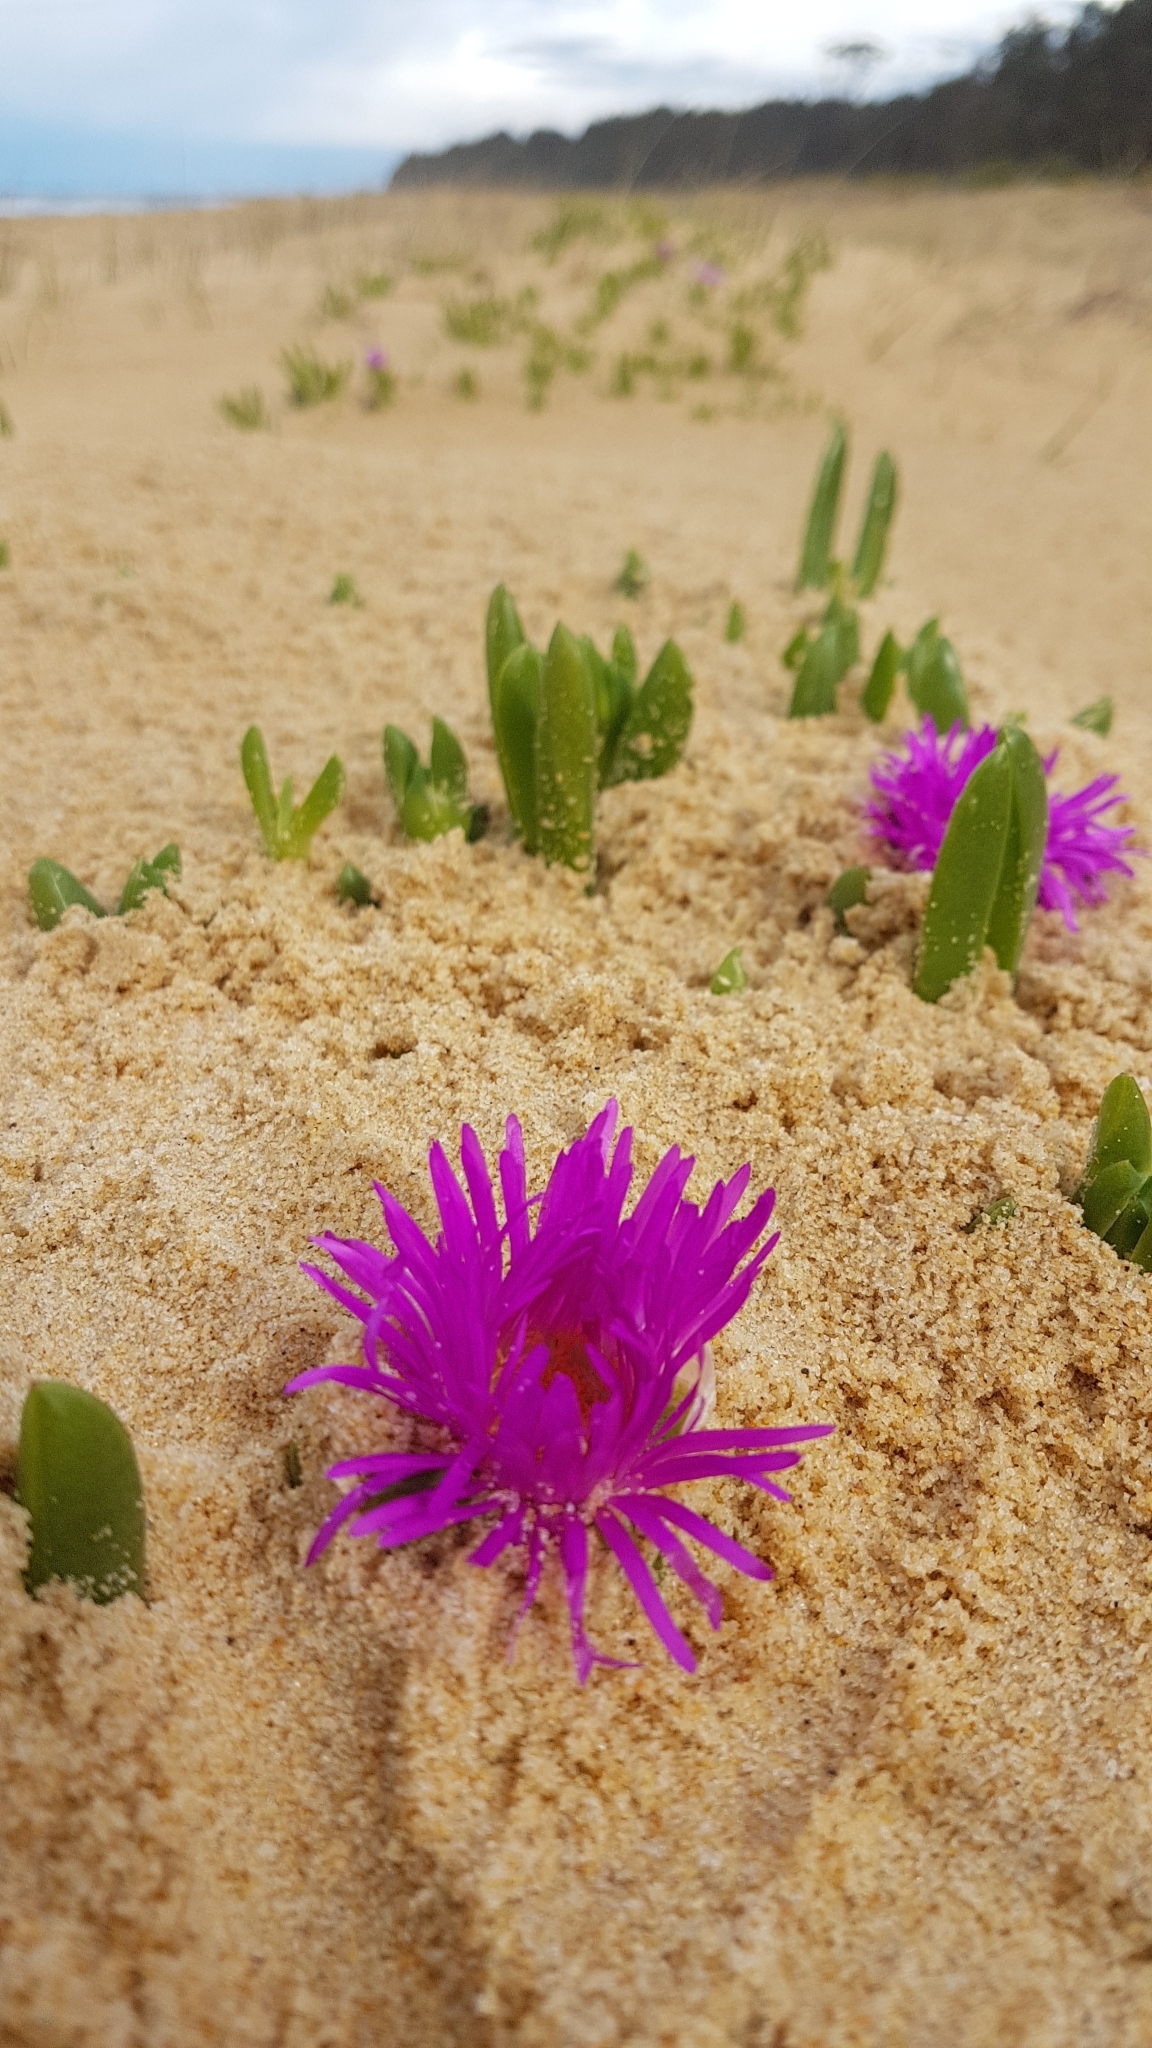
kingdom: Plantae
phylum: Tracheophyta
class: Magnoliopsida
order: Caryophyllales
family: Aizoaceae
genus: Carpobrotus
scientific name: Carpobrotus glaucescens
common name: Angular sea-fig
